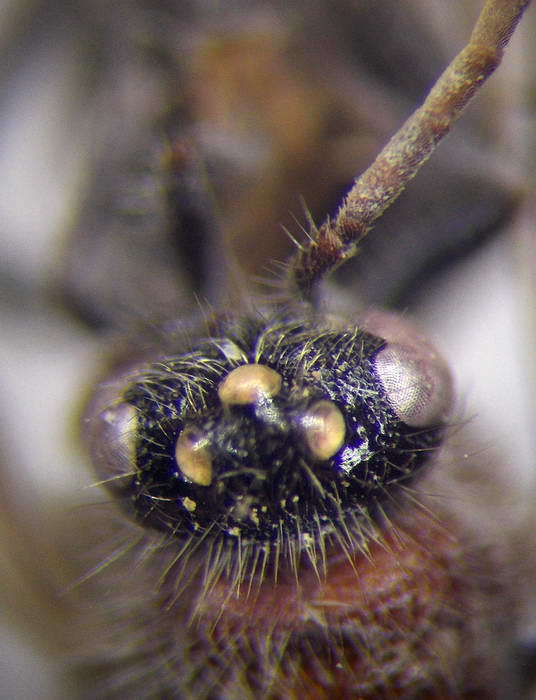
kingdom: Animalia
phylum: Arthropoda
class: Insecta
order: Hymenoptera
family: Mutillidae
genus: Smicromyrme
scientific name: Smicromyrme rufipes
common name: Small velvet ant
